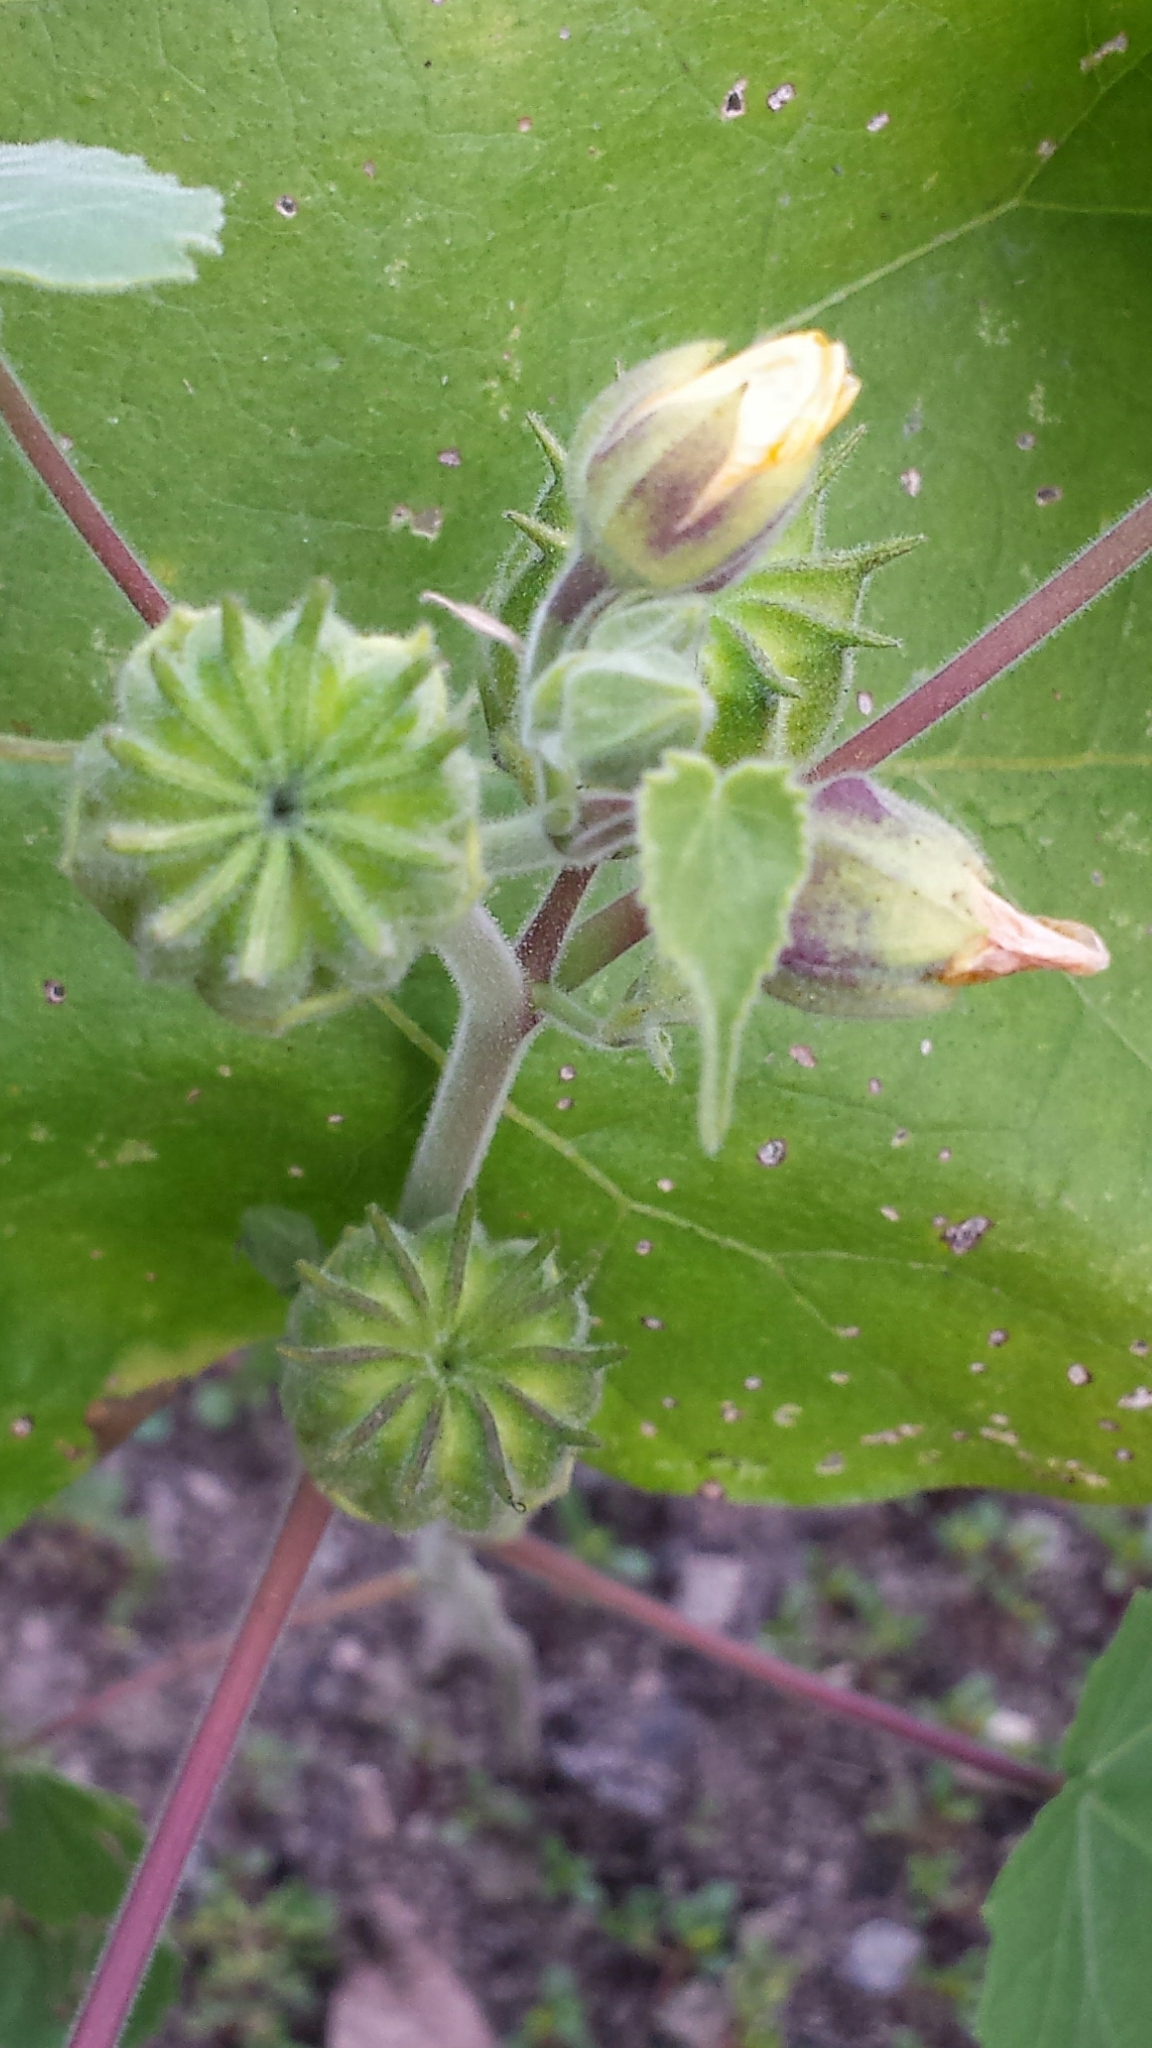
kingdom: Plantae
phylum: Tracheophyta
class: Magnoliopsida
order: Malvales
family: Malvaceae
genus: Abutilon
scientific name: Abutilon theophrasti
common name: Velvetleaf
